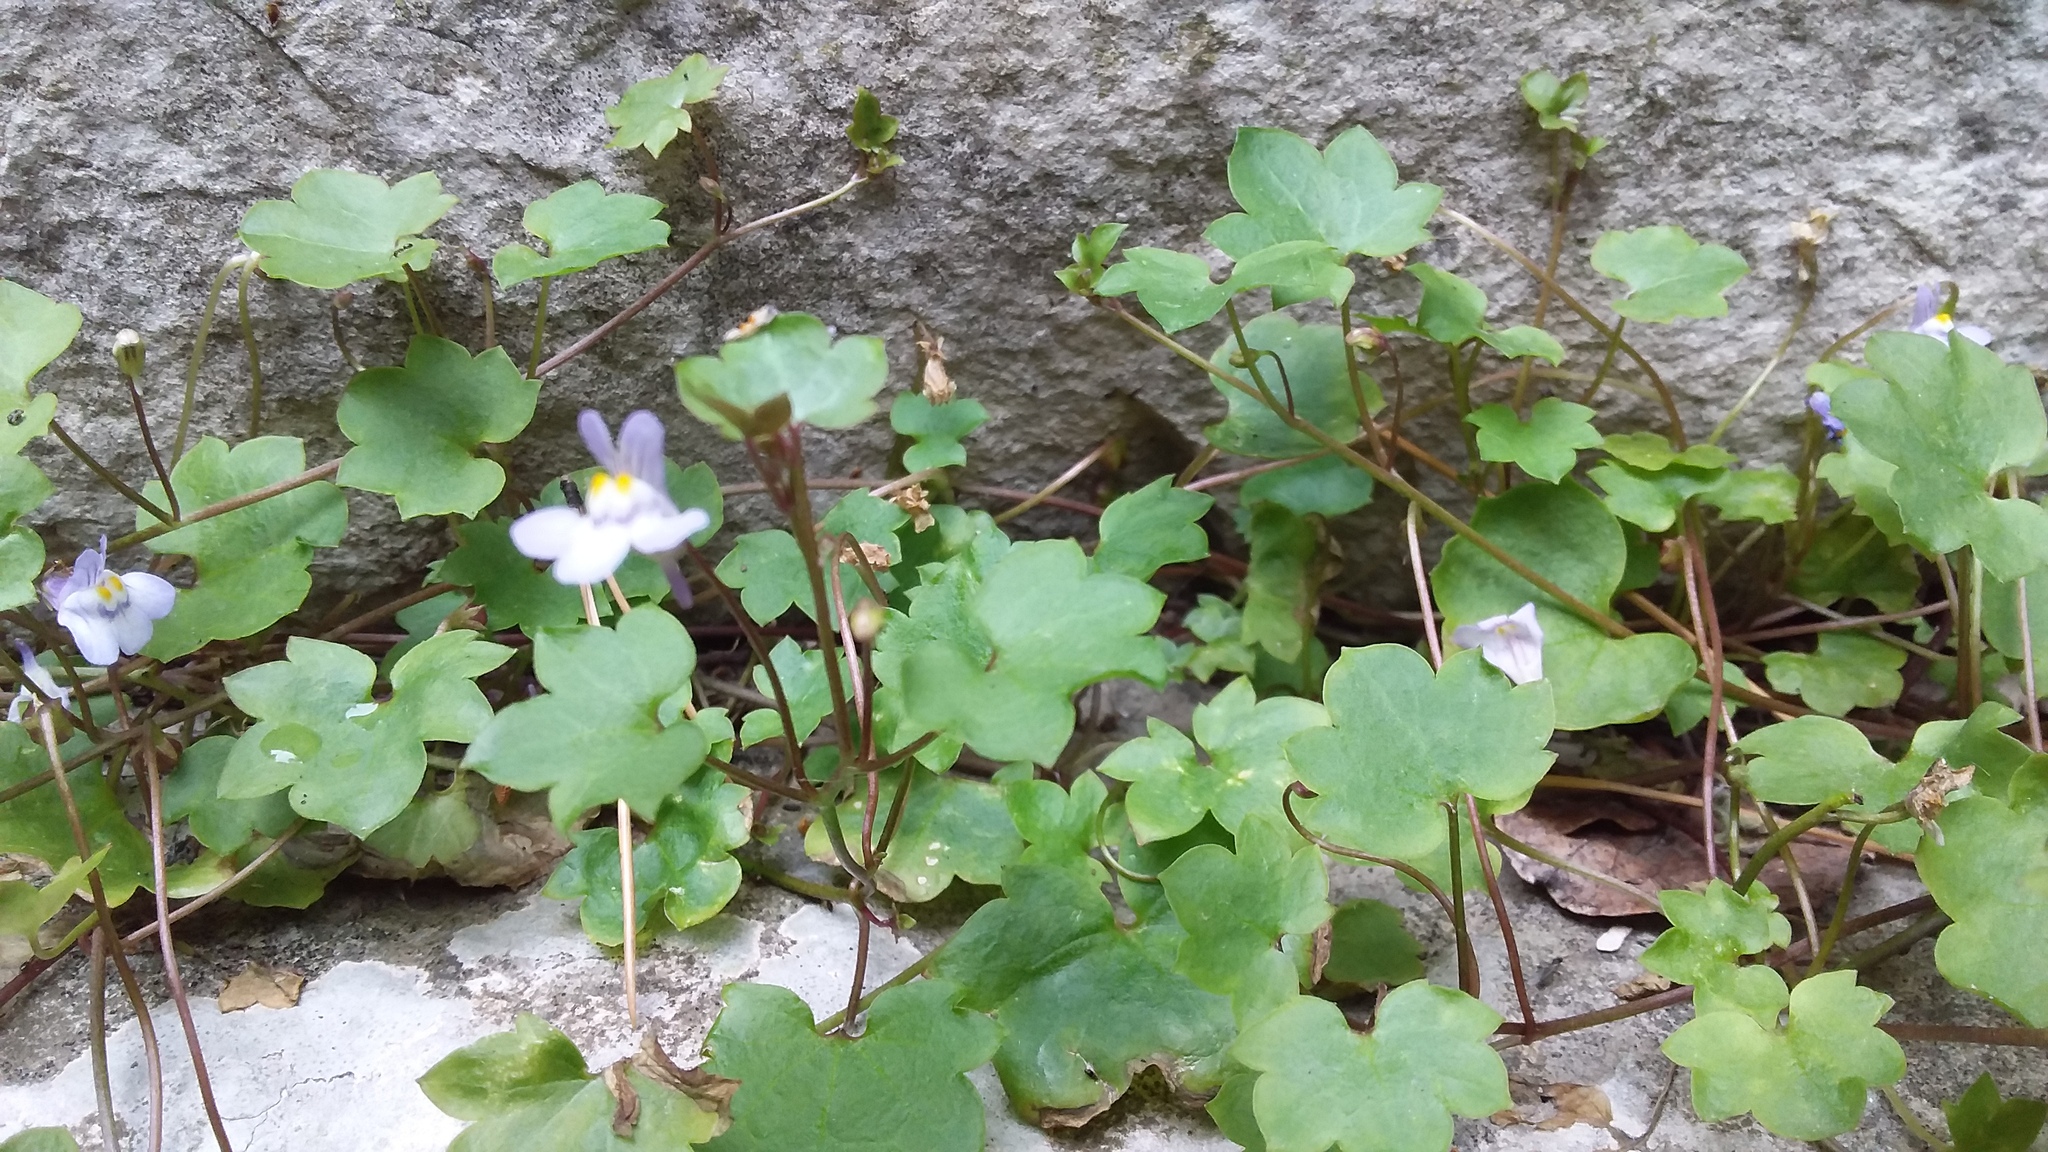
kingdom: Plantae
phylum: Tracheophyta
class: Magnoliopsida
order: Lamiales
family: Plantaginaceae
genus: Cymbalaria
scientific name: Cymbalaria muralis
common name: Ivy-leaved toadflax
